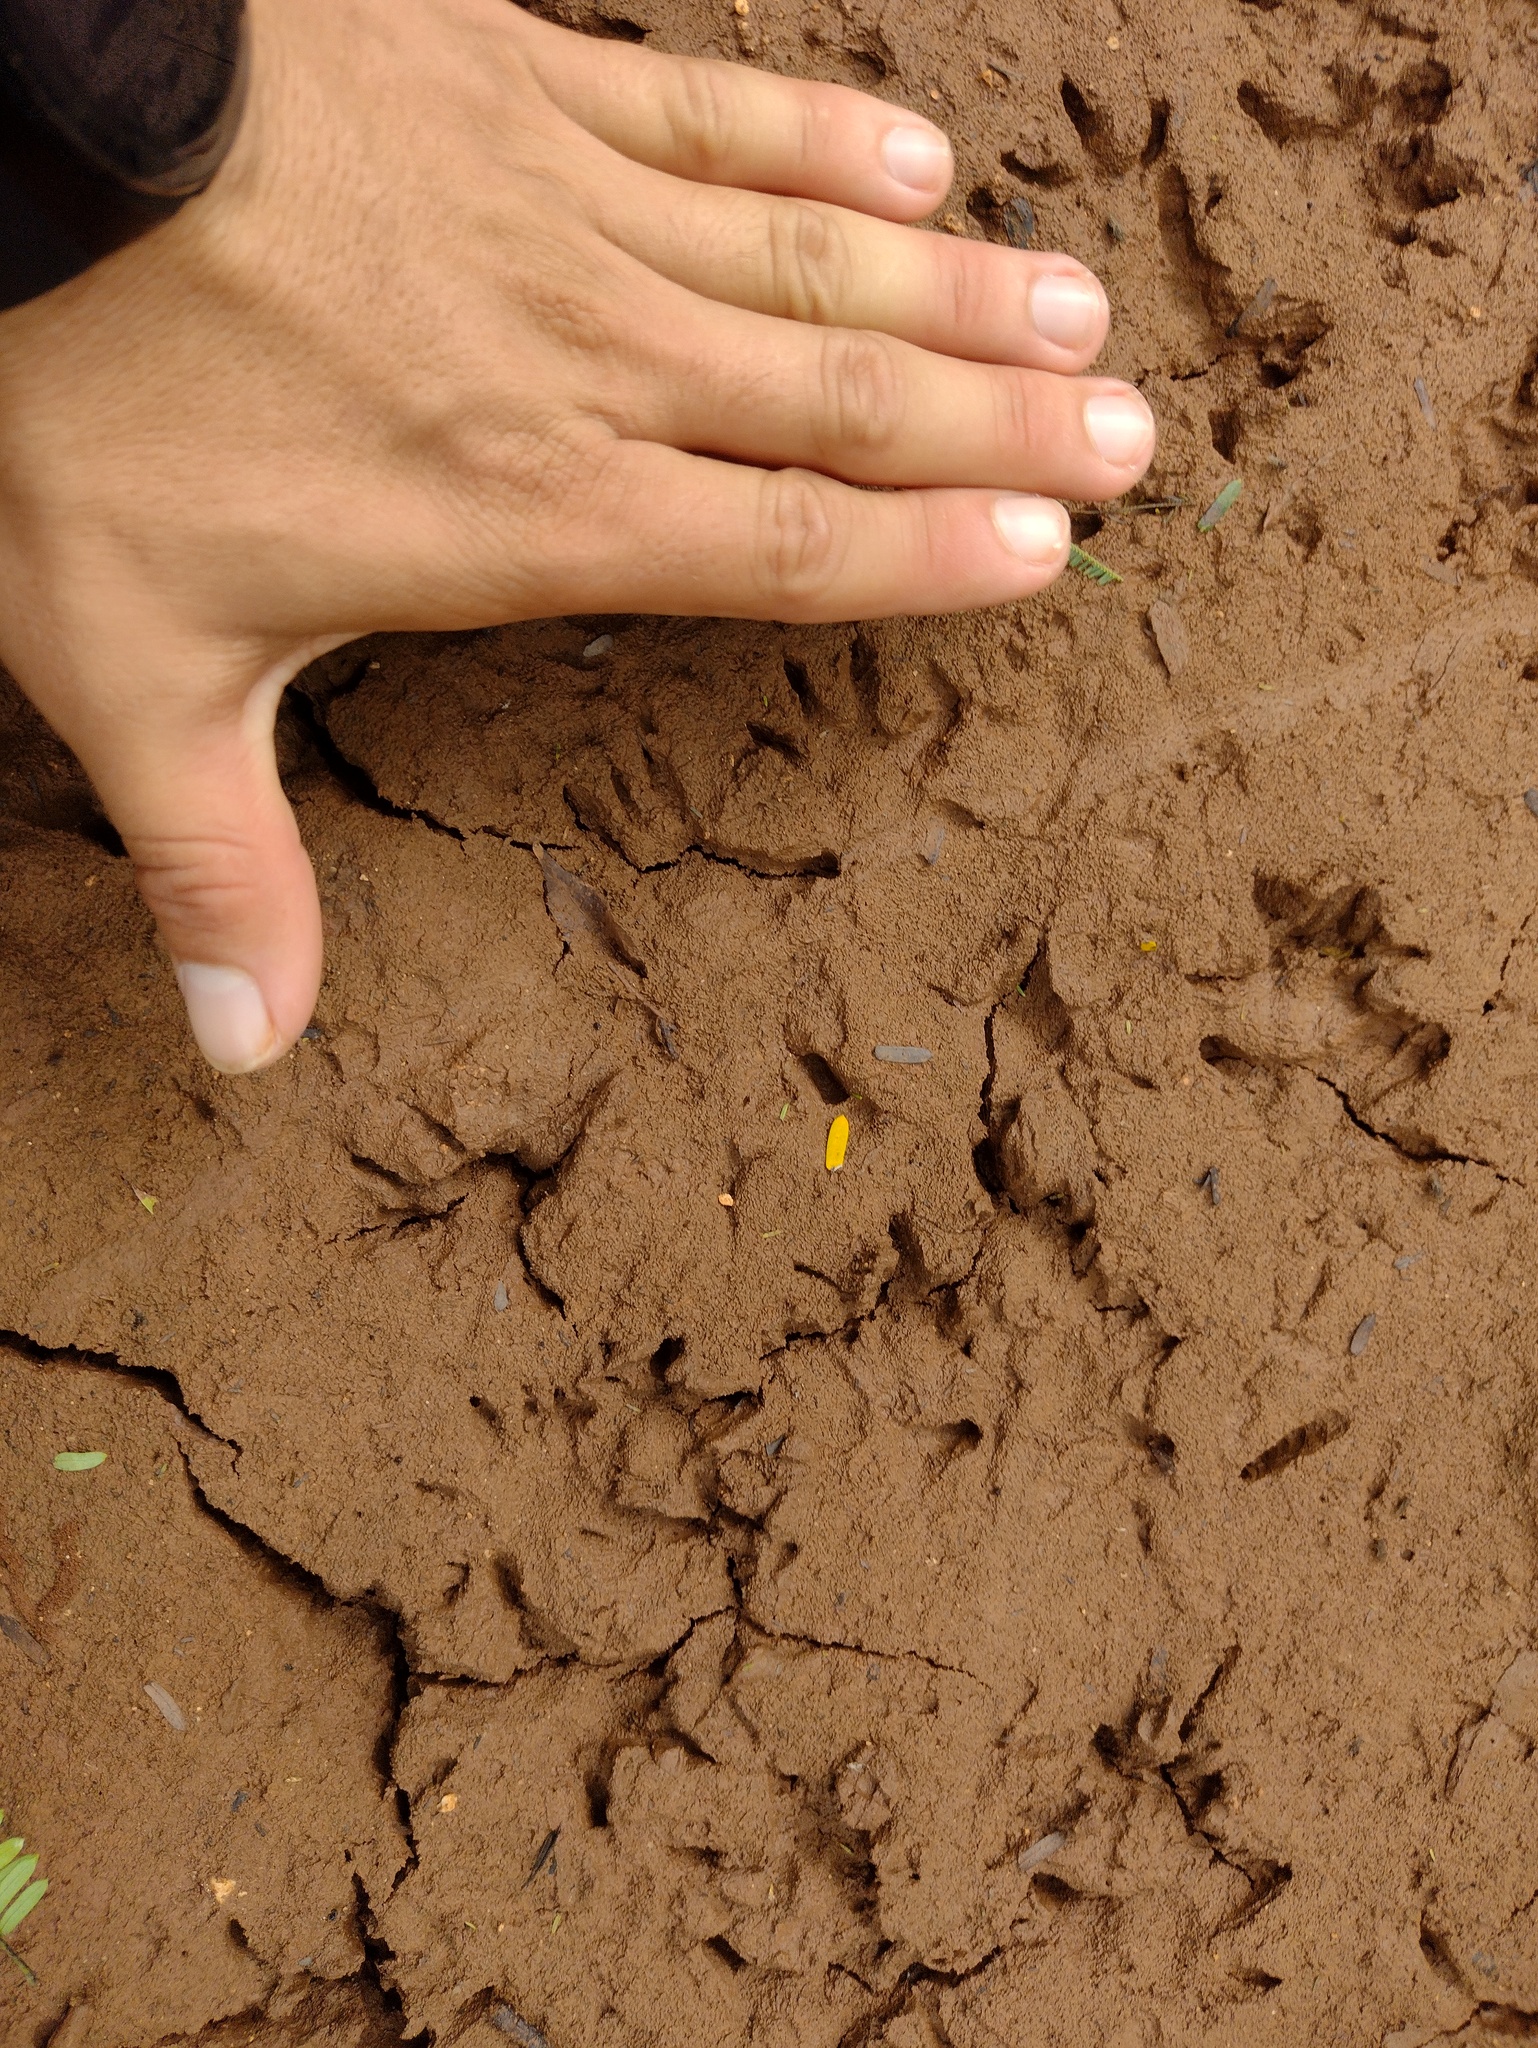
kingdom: Animalia
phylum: Chordata
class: Mammalia
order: Didelphimorphia
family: Didelphidae
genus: Didelphis
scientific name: Didelphis
